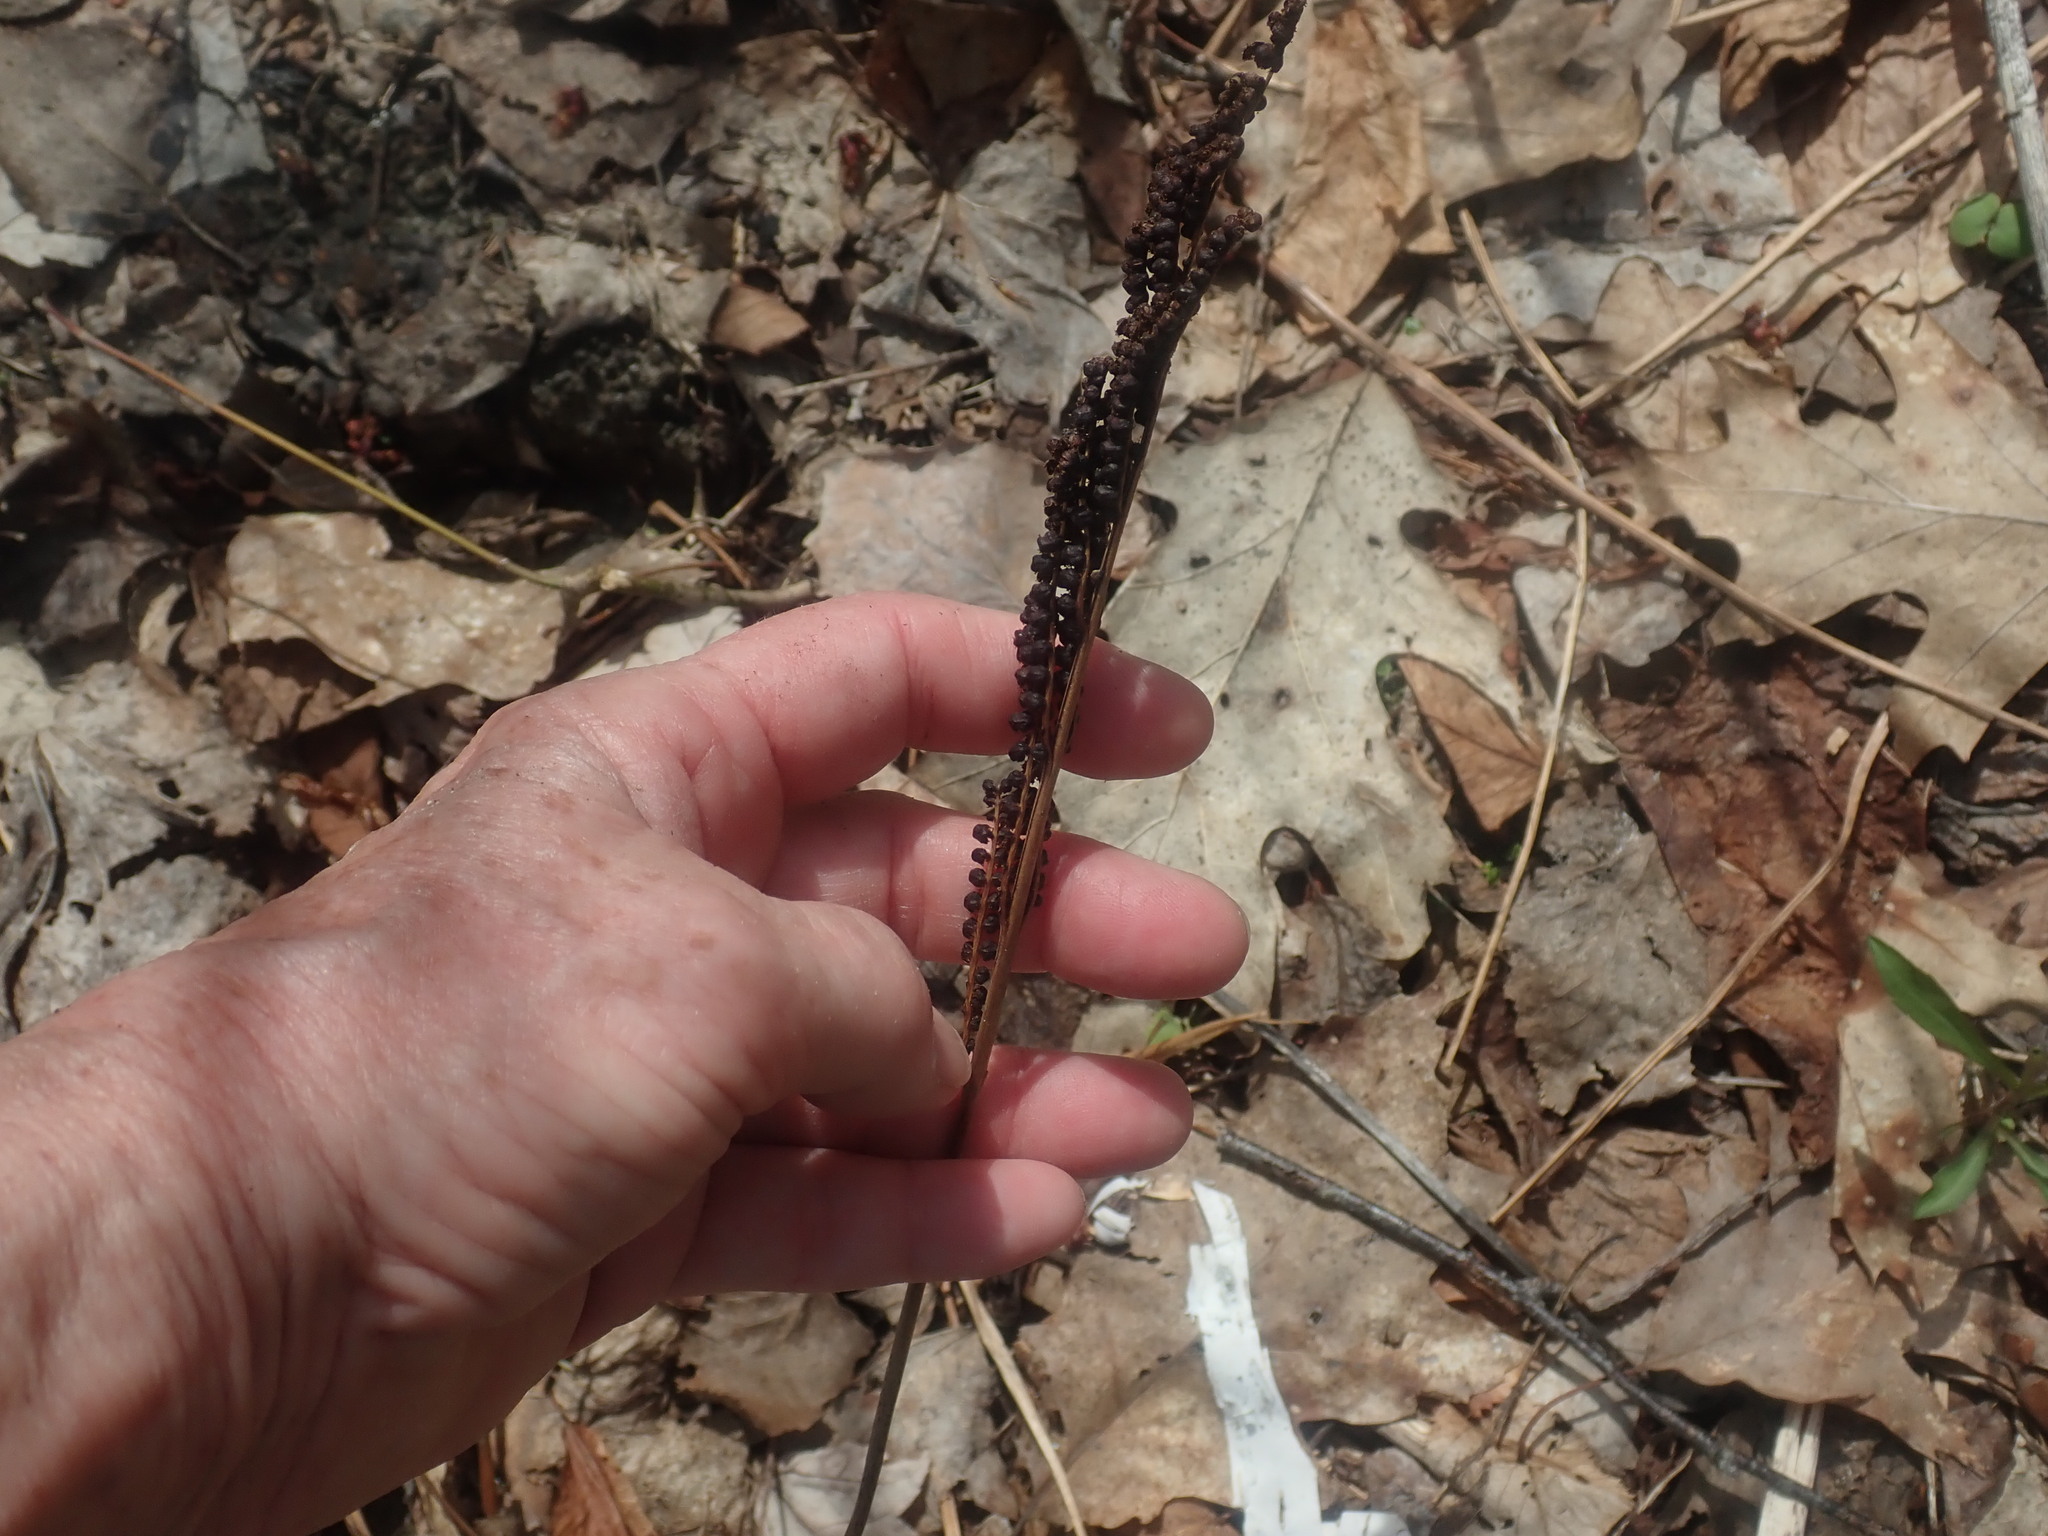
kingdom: Plantae
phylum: Tracheophyta
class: Polypodiopsida
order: Polypodiales
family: Onocleaceae
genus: Onoclea
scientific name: Onoclea sensibilis
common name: Sensitive fern
